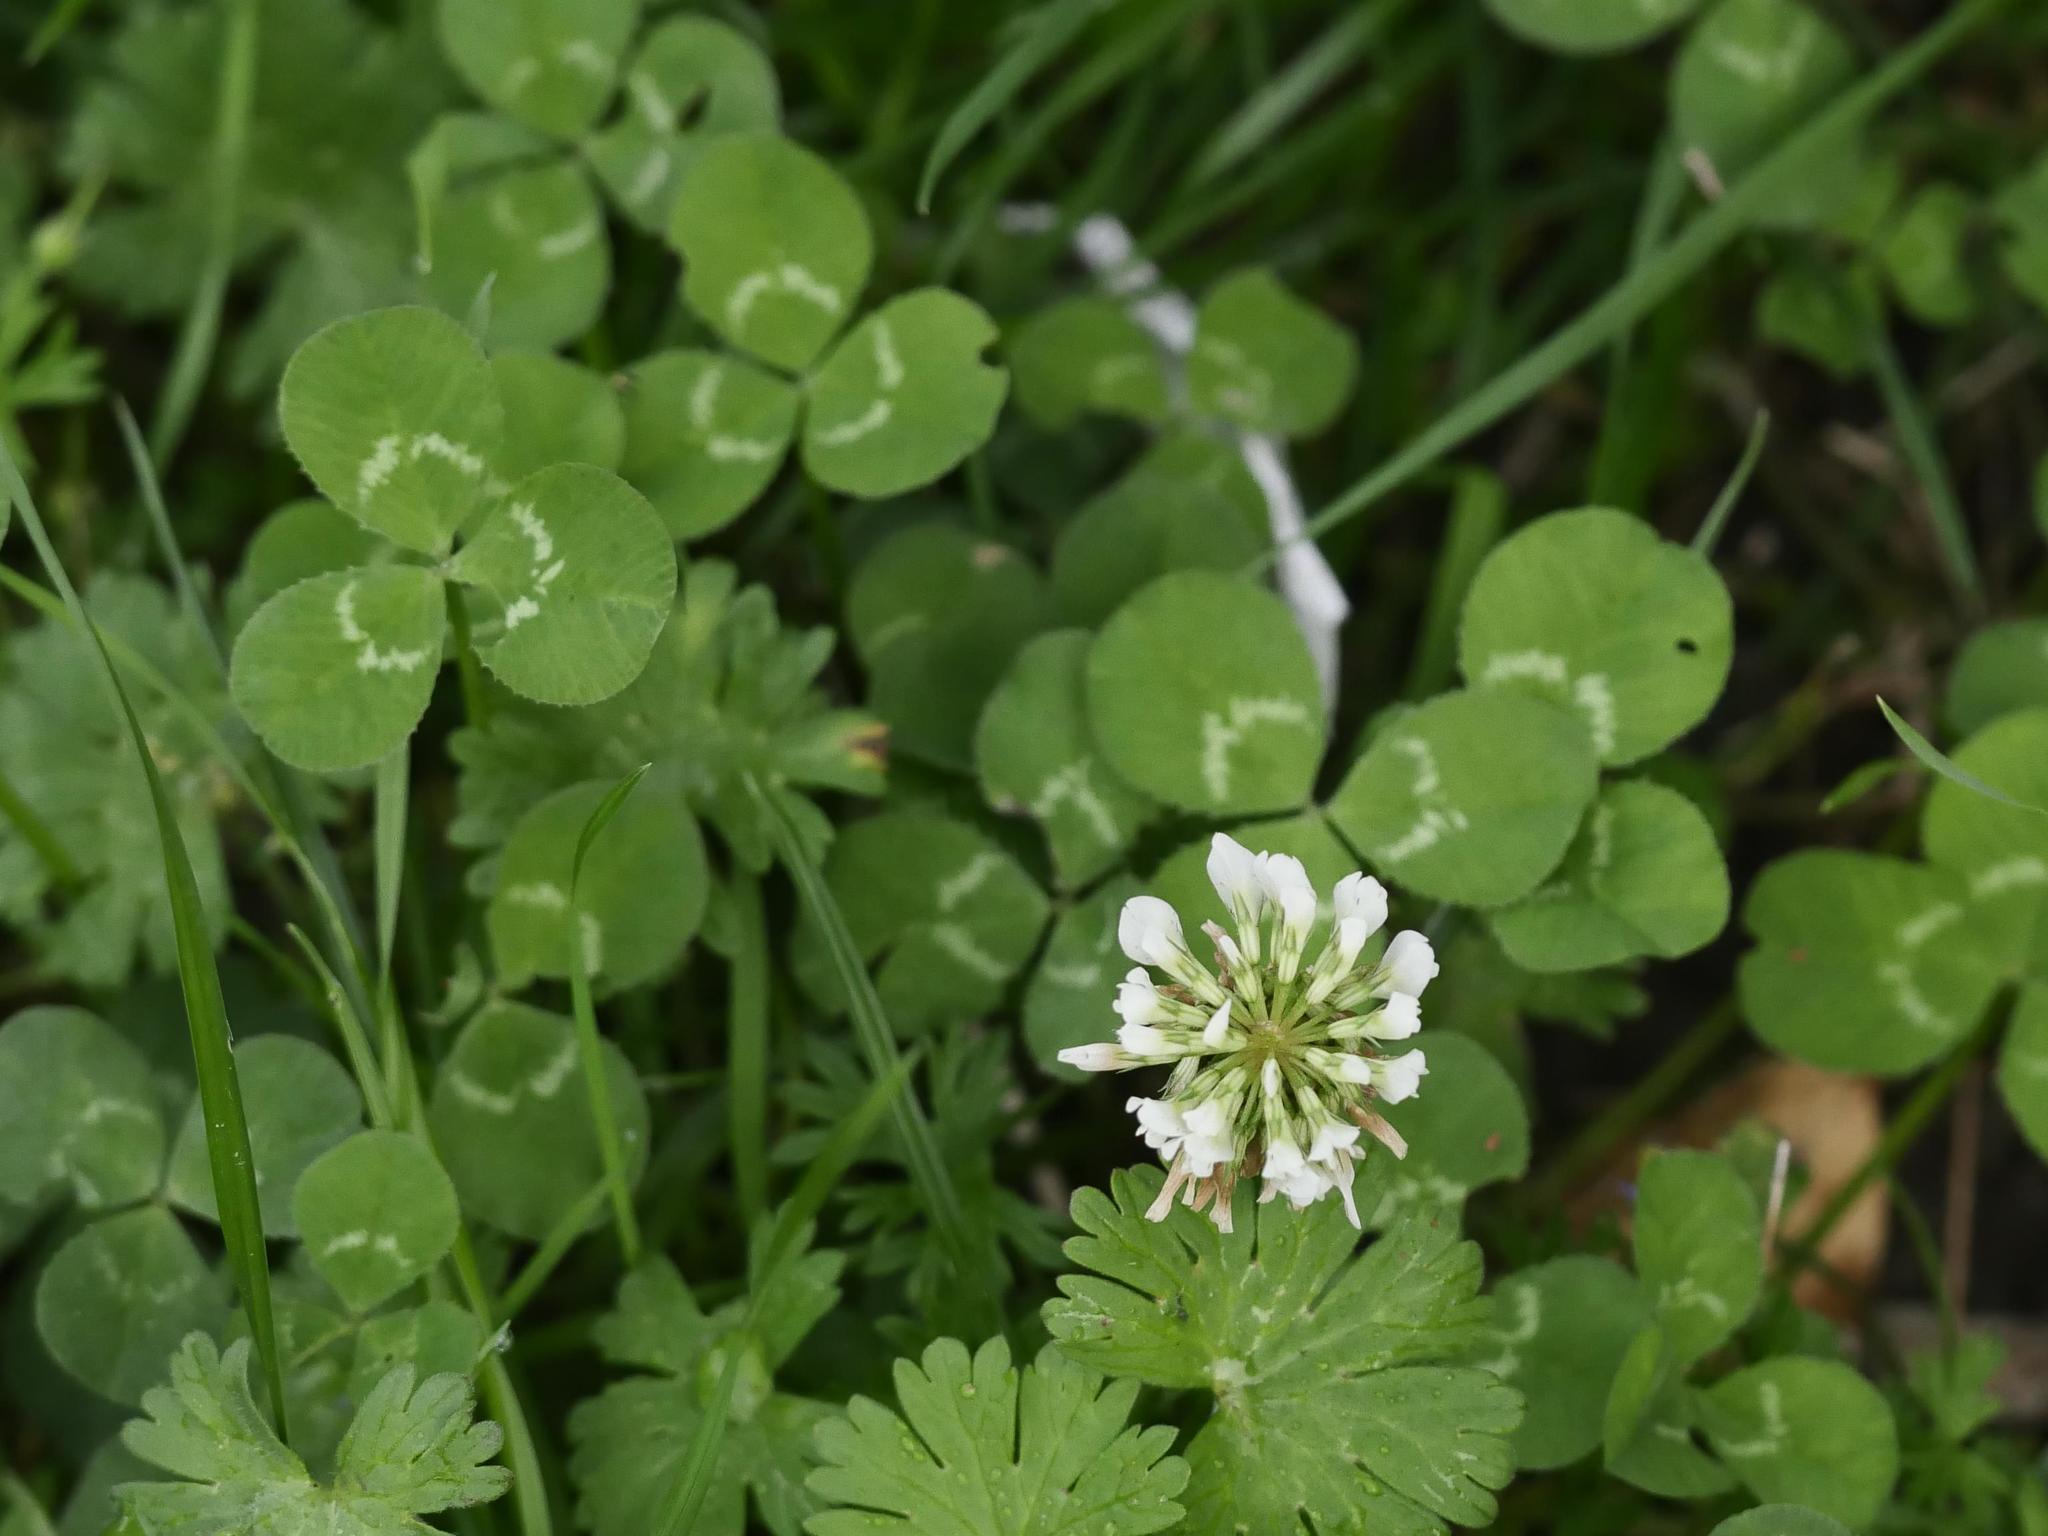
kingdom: Plantae
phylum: Tracheophyta
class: Magnoliopsida
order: Fabales
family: Fabaceae
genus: Trifolium
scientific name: Trifolium repens
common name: White clover
